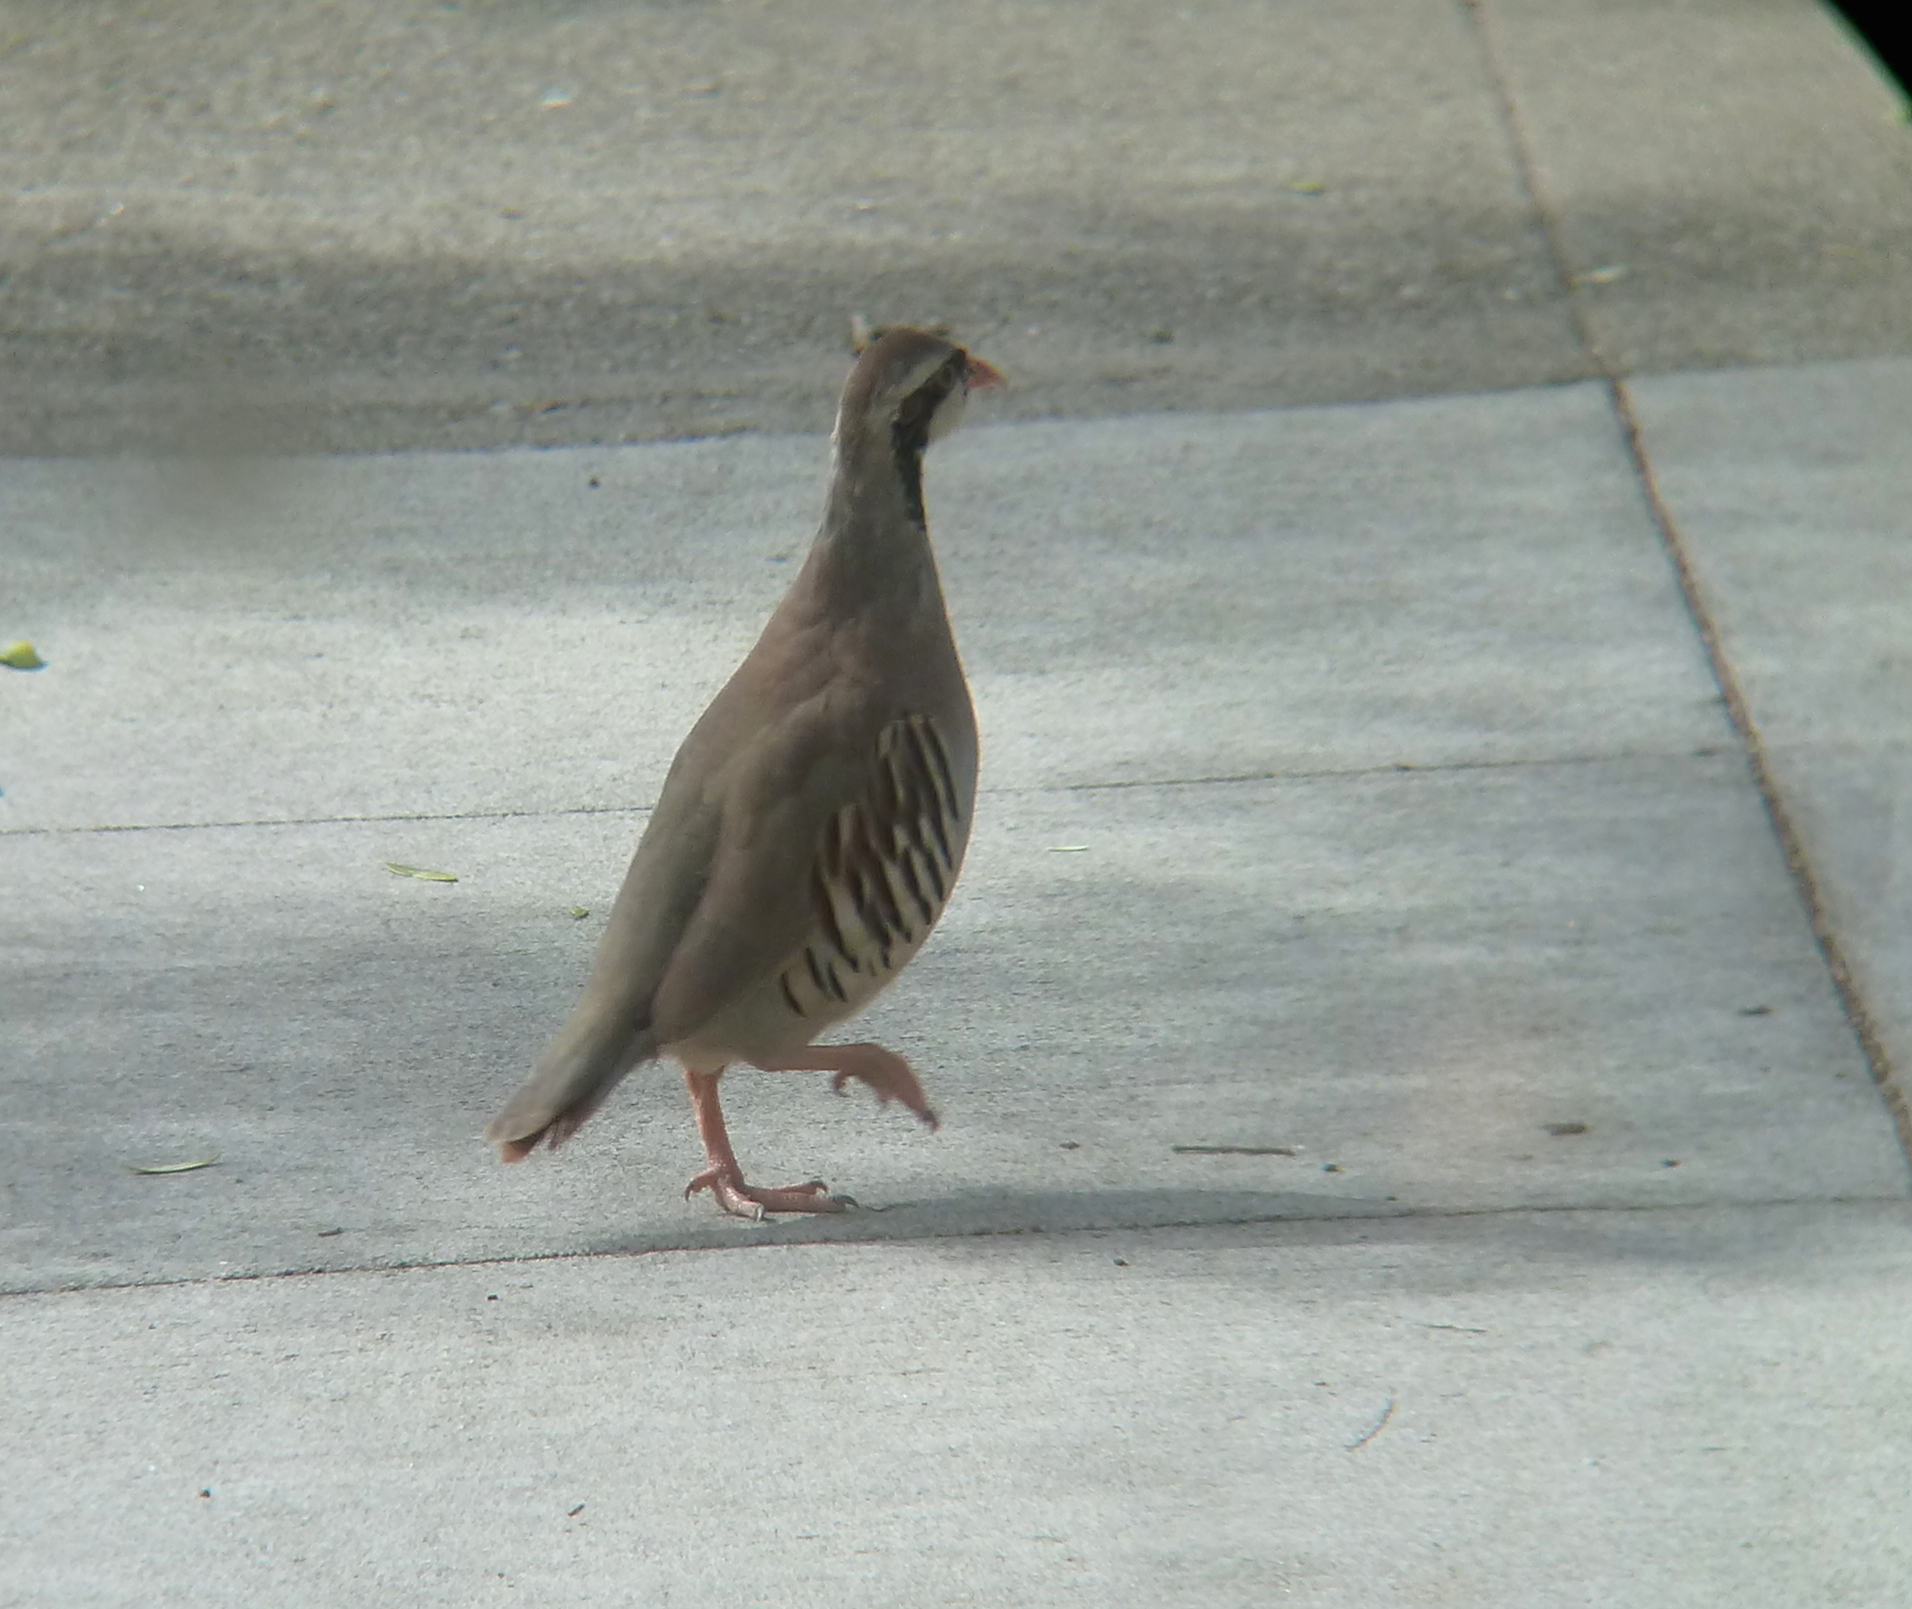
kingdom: Animalia
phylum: Chordata
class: Aves
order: Galliformes
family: Phasianidae
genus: Alectoris
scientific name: Alectoris chukar
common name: Chukar
